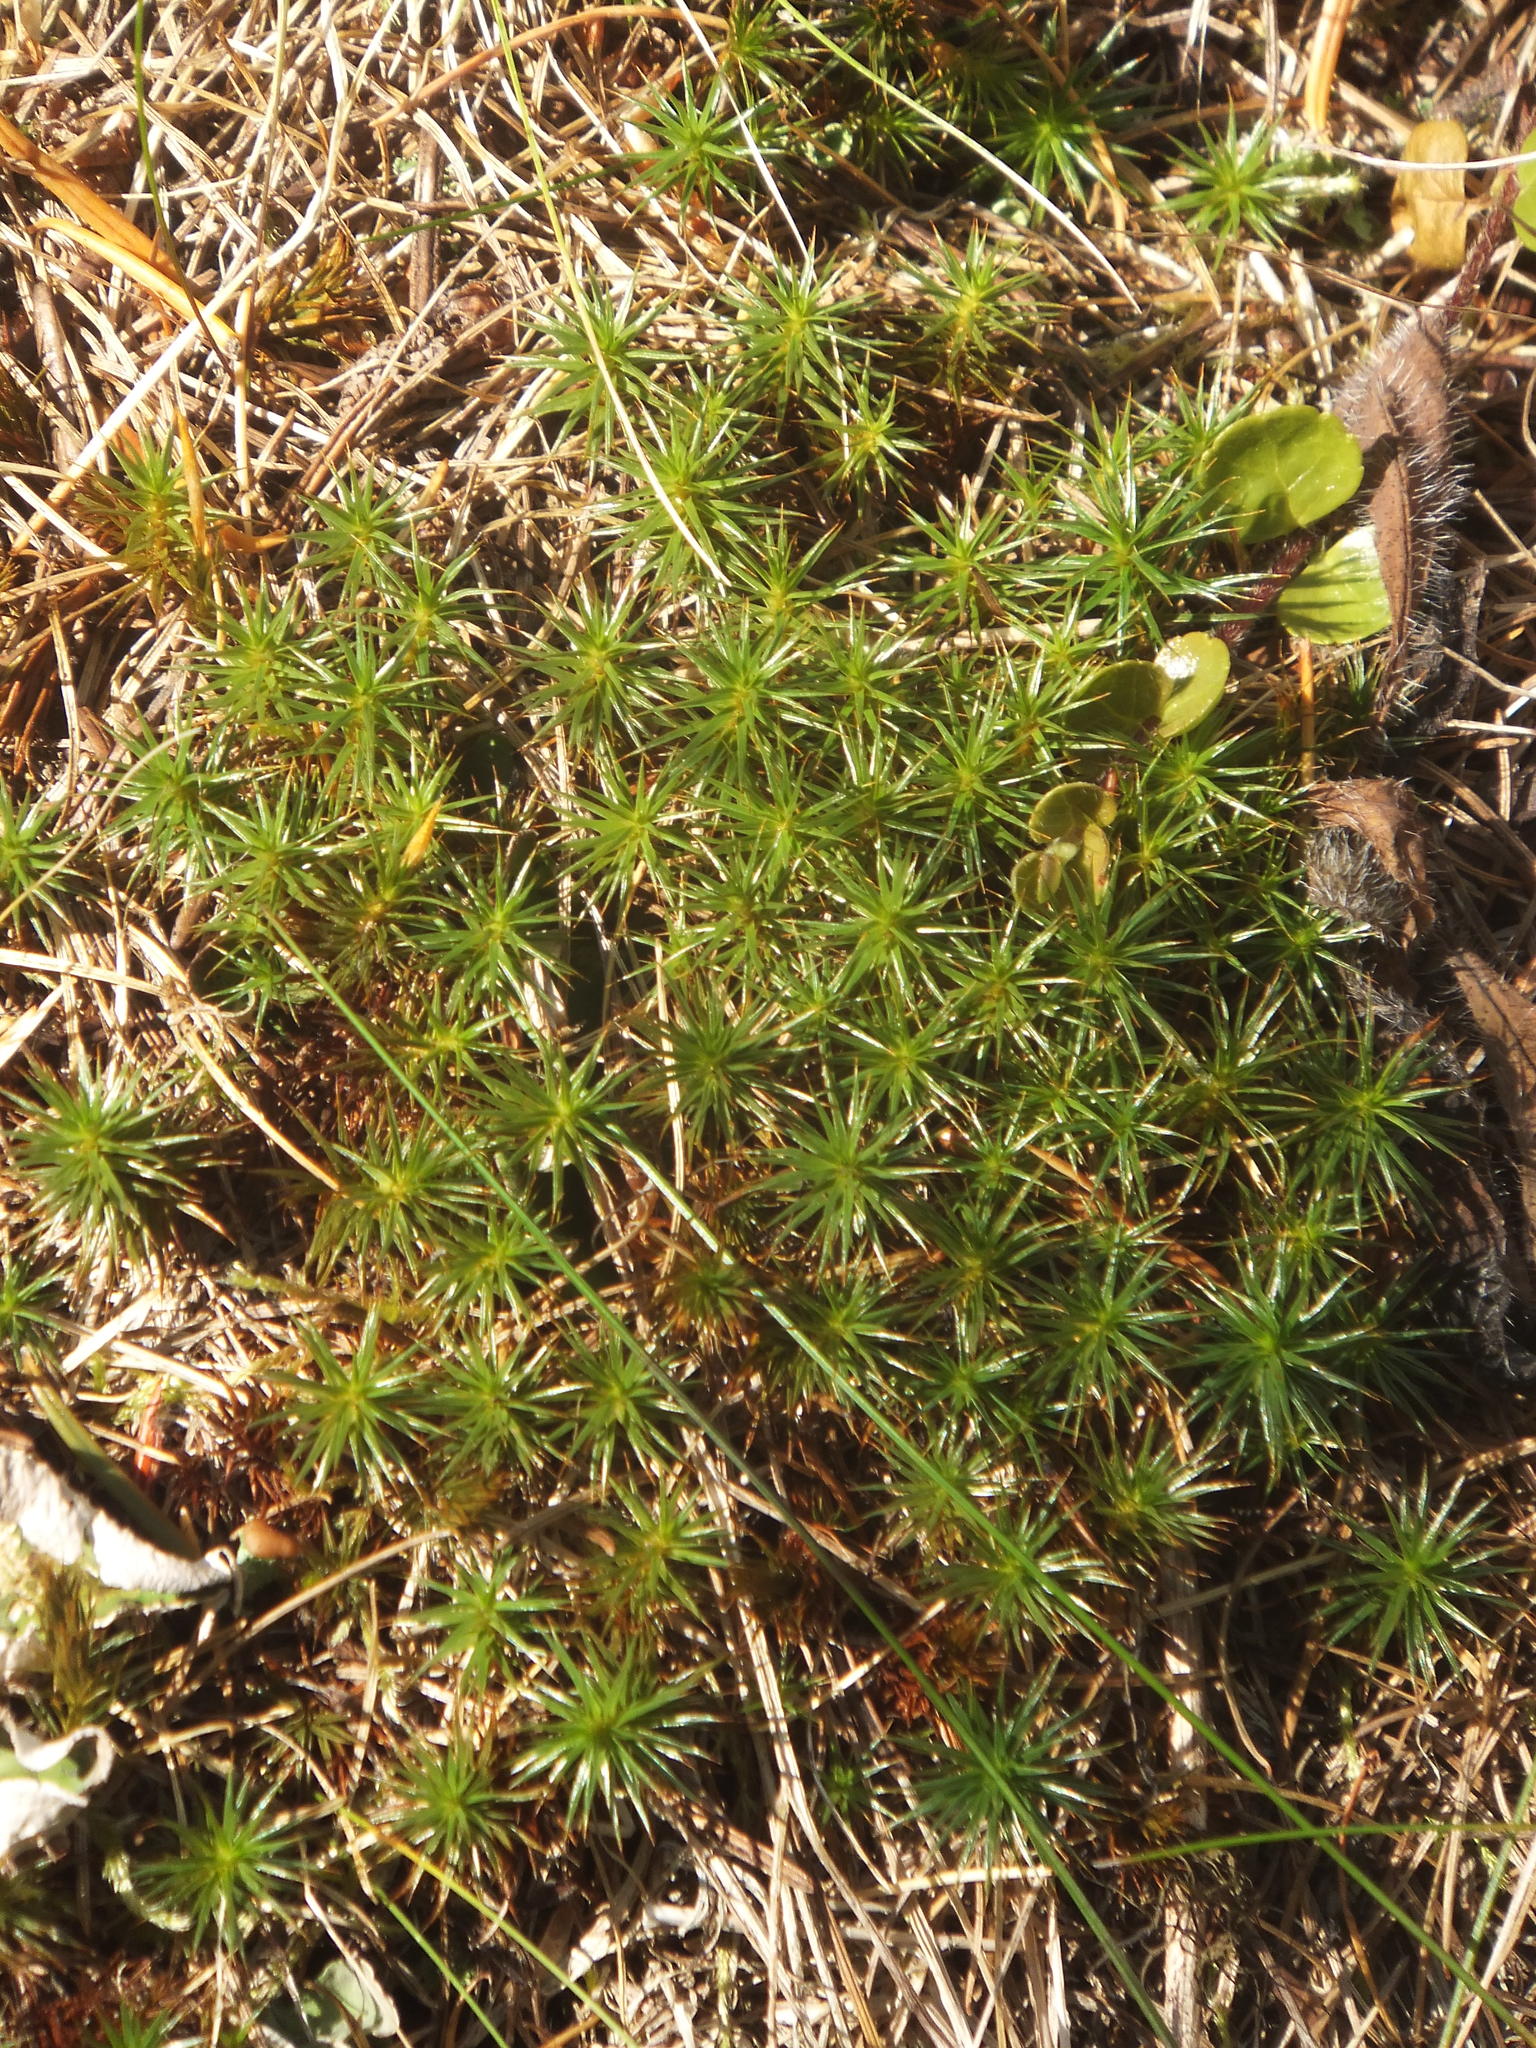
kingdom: Plantae
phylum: Bryophyta
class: Polytrichopsida
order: Polytrichales
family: Polytrichaceae
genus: Polytrichum
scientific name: Polytrichum juniperinum
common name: Juniper haircap moss
